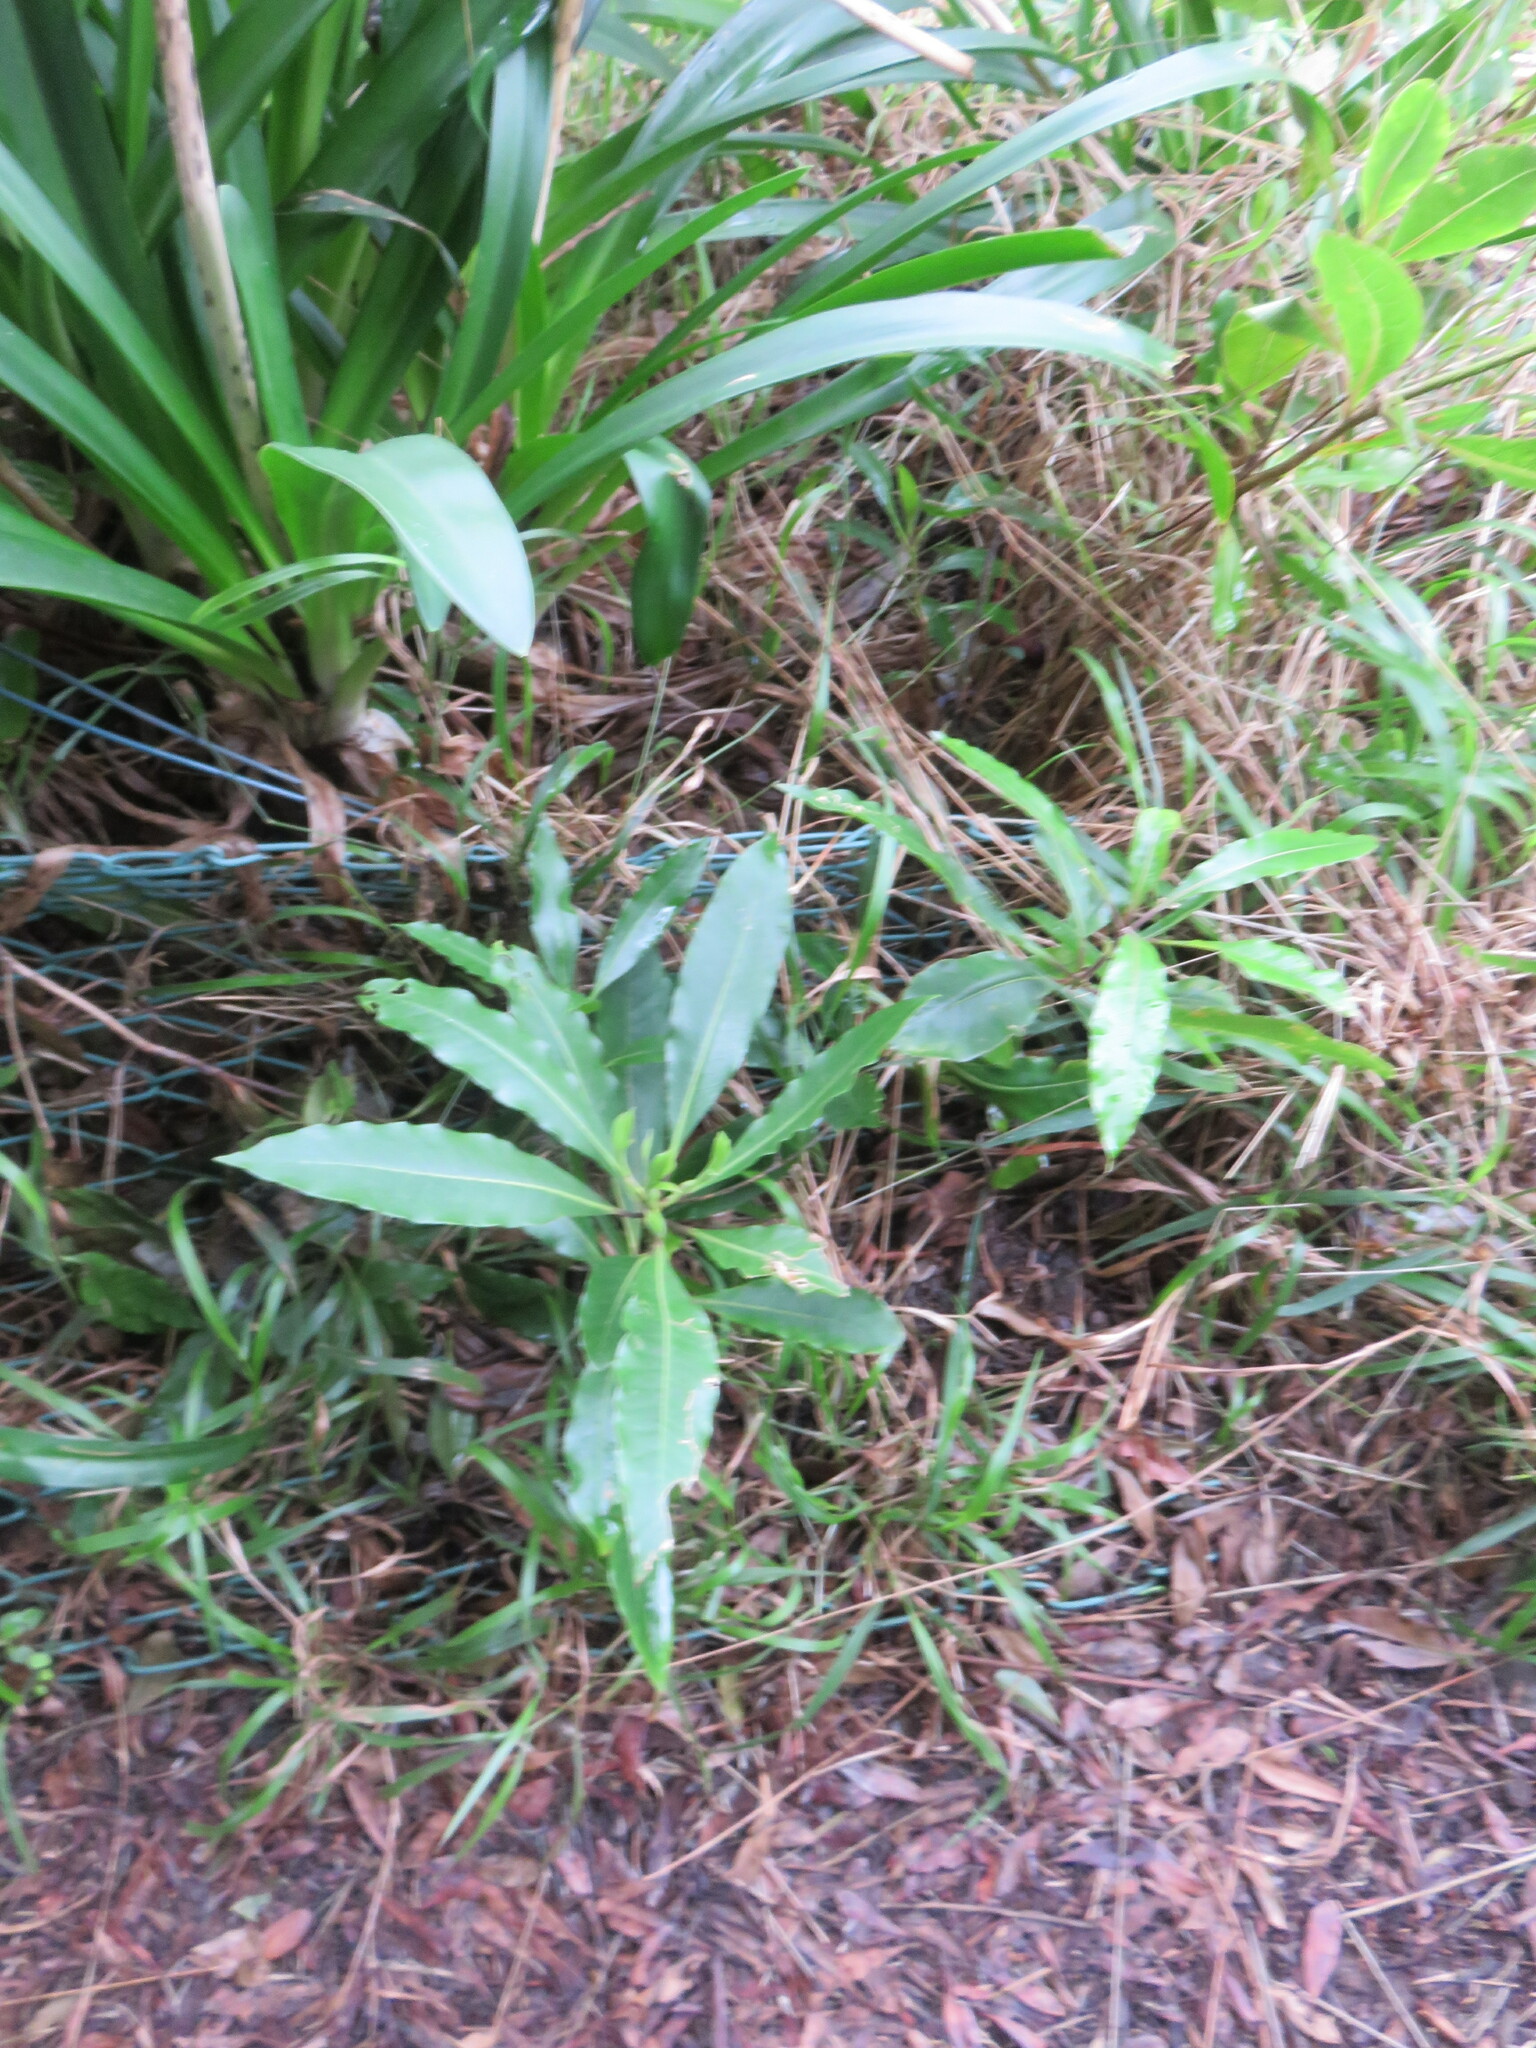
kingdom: Plantae
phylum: Tracheophyta
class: Magnoliopsida
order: Apiales
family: Pittosporaceae
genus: Pittosporum
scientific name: Pittosporum undulatum
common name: Australian cheesewood
